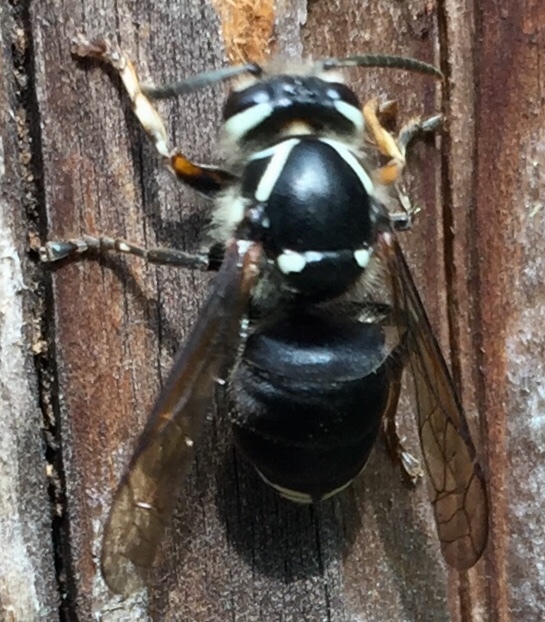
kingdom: Animalia
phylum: Arthropoda
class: Insecta
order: Hymenoptera
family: Vespidae
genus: Dolichovespula
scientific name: Dolichovespula maculata
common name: Bald-faced hornet
